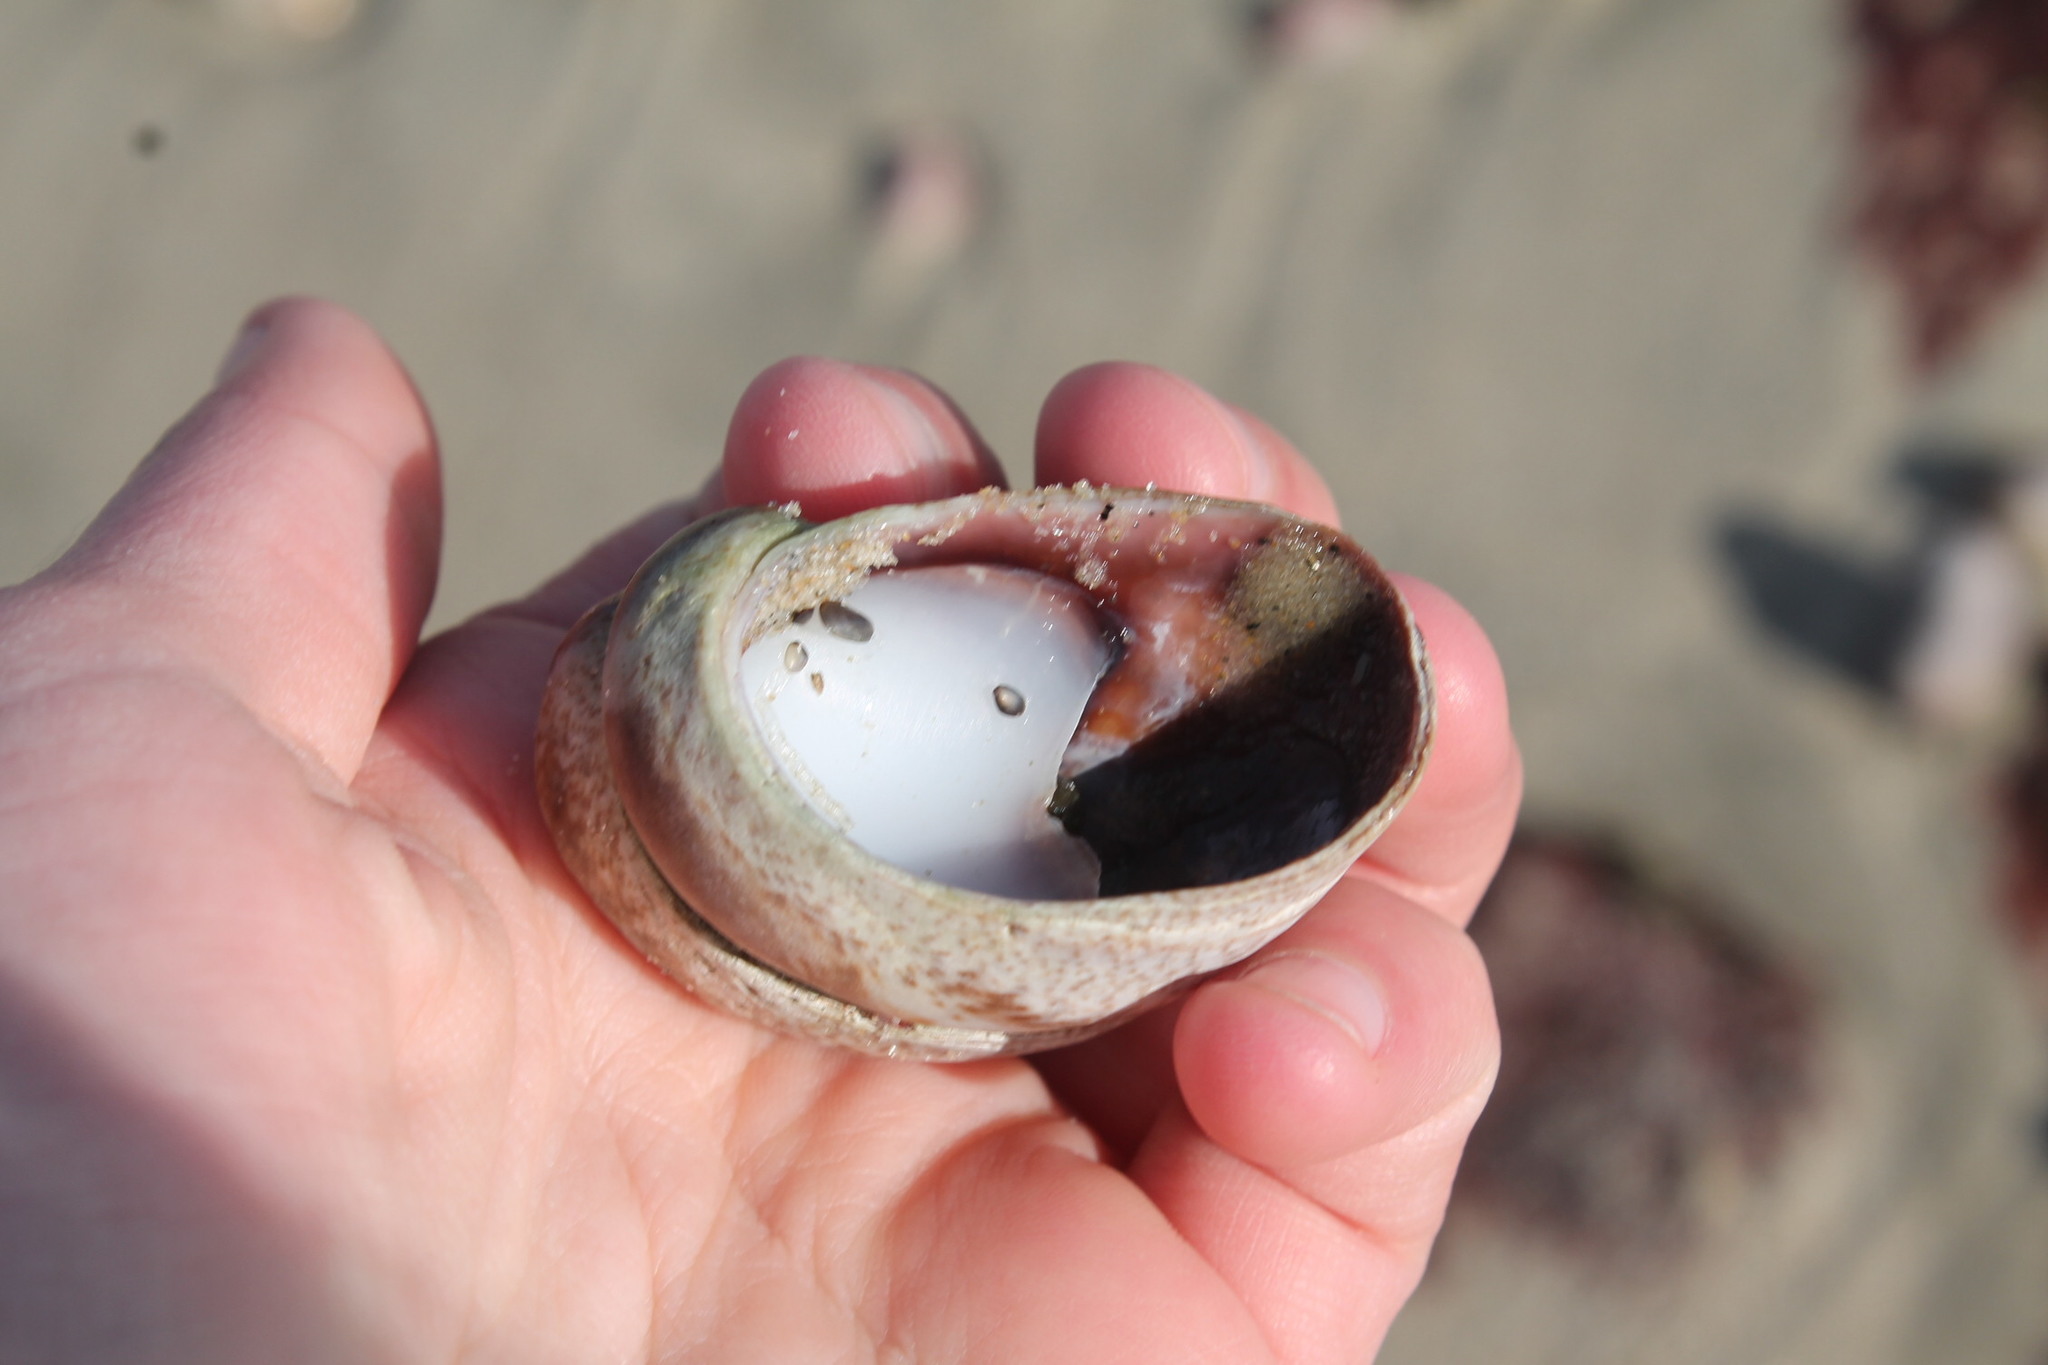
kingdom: Animalia
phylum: Mollusca
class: Gastropoda
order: Littorinimorpha
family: Calyptraeidae
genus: Crepidula
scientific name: Crepidula fornicata
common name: Slipper limpet
